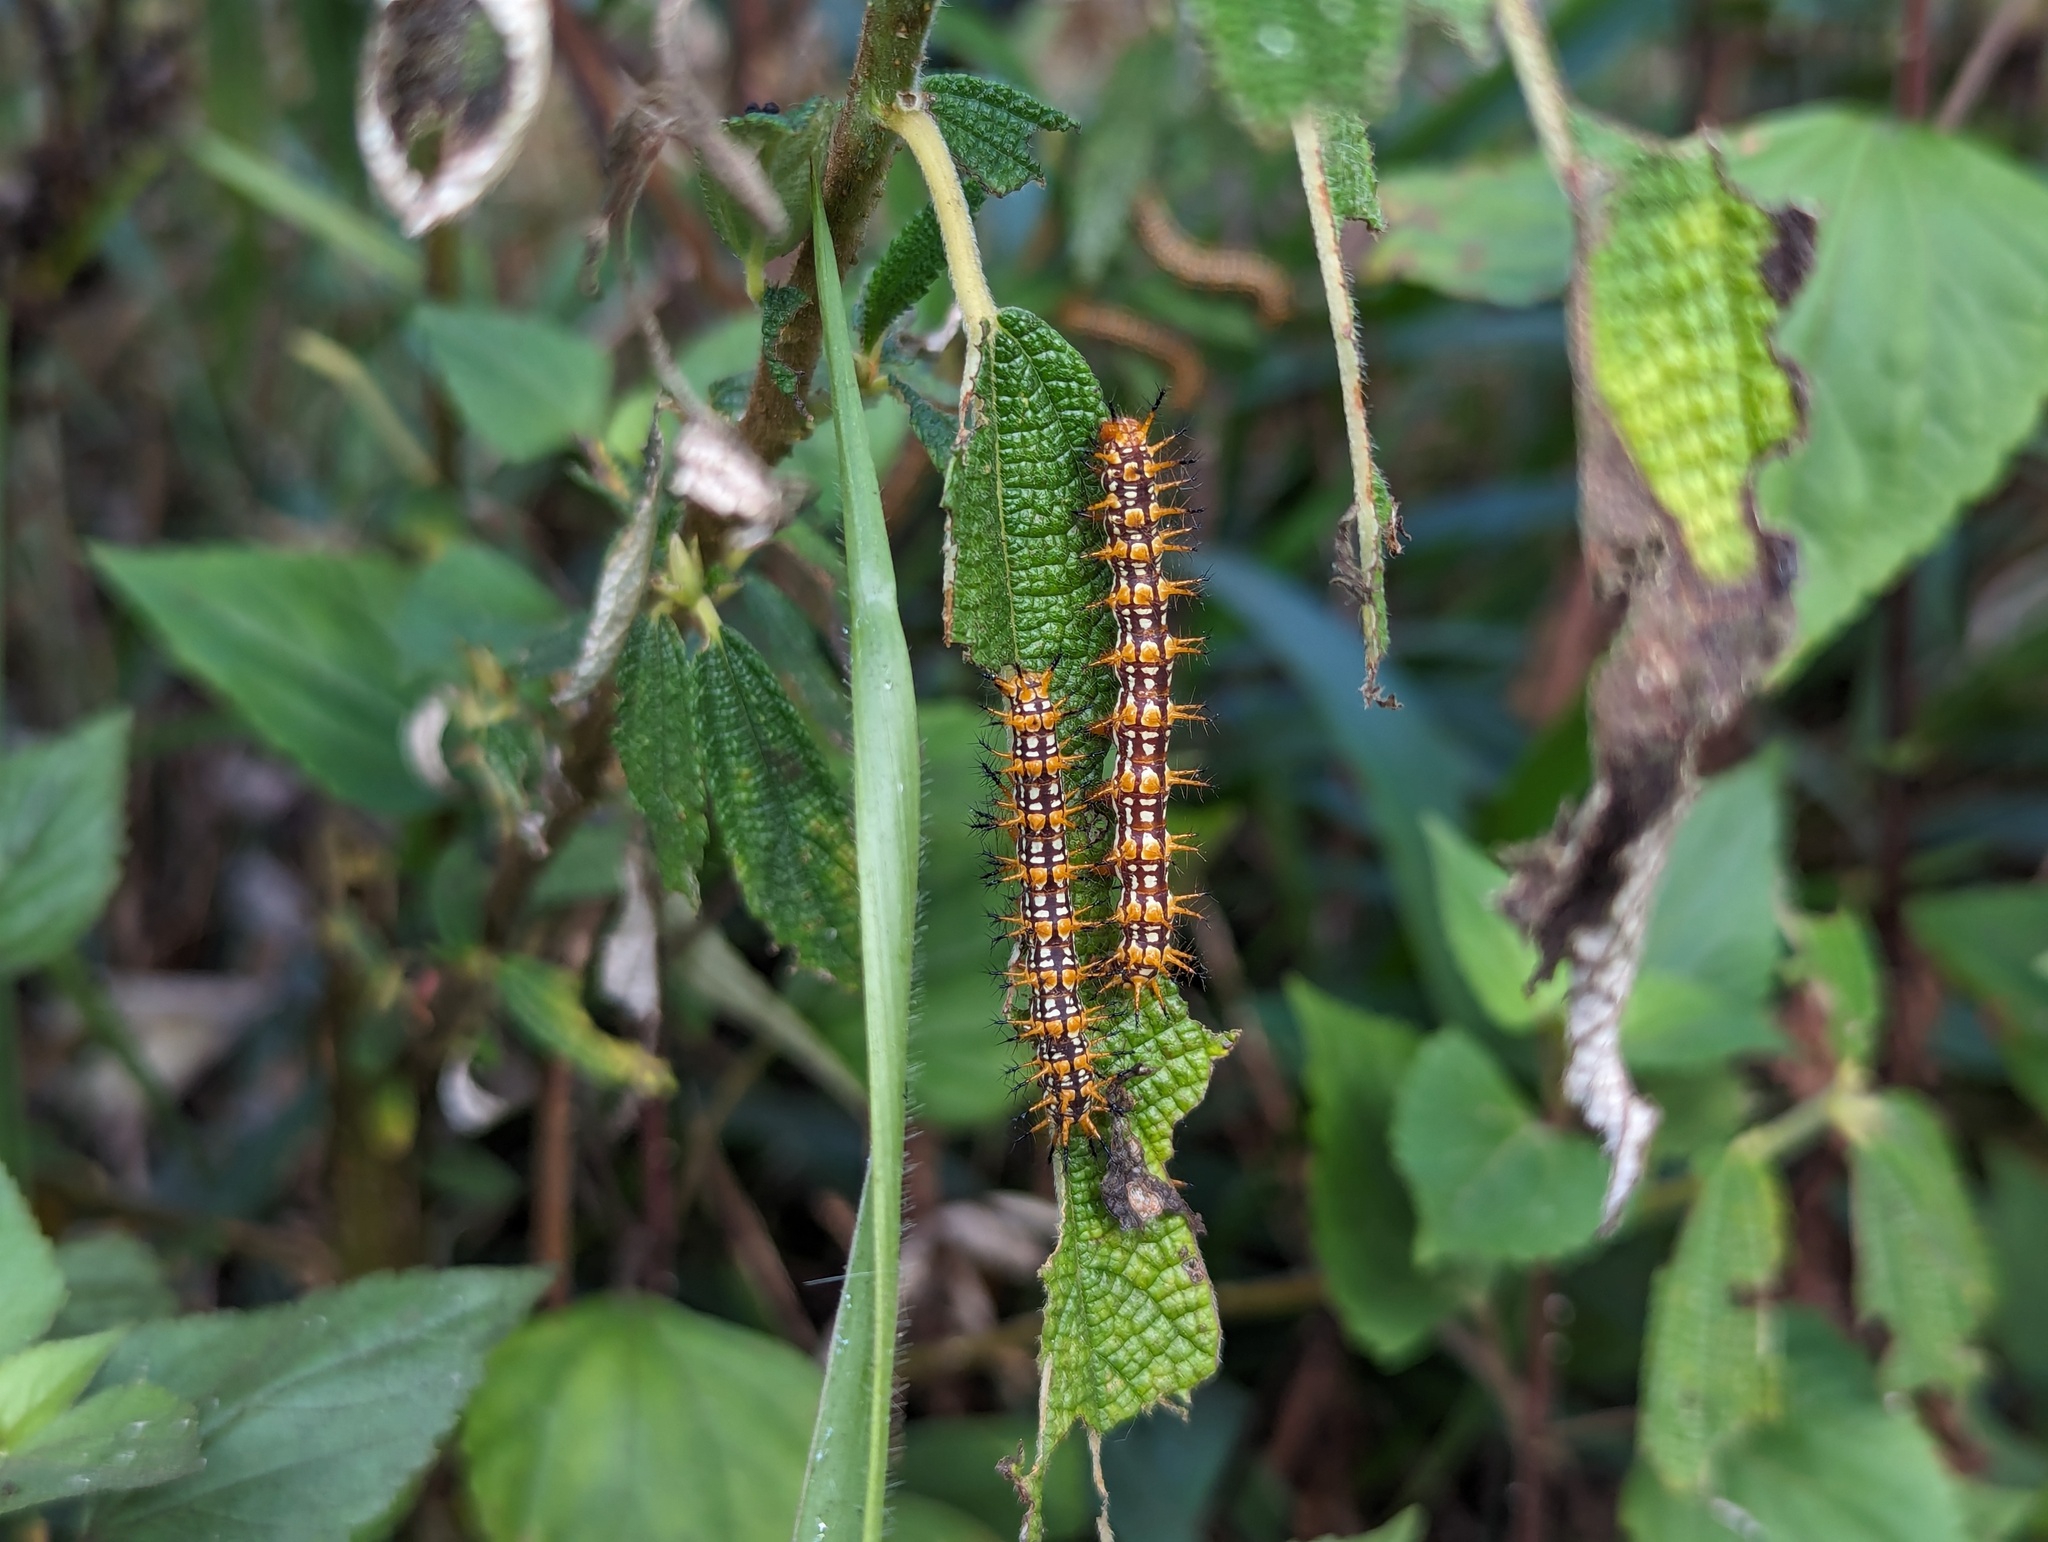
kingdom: Animalia
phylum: Arthropoda
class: Insecta
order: Lepidoptera
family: Nymphalidae
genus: Acraea
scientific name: Acraea Telchinia issoria
